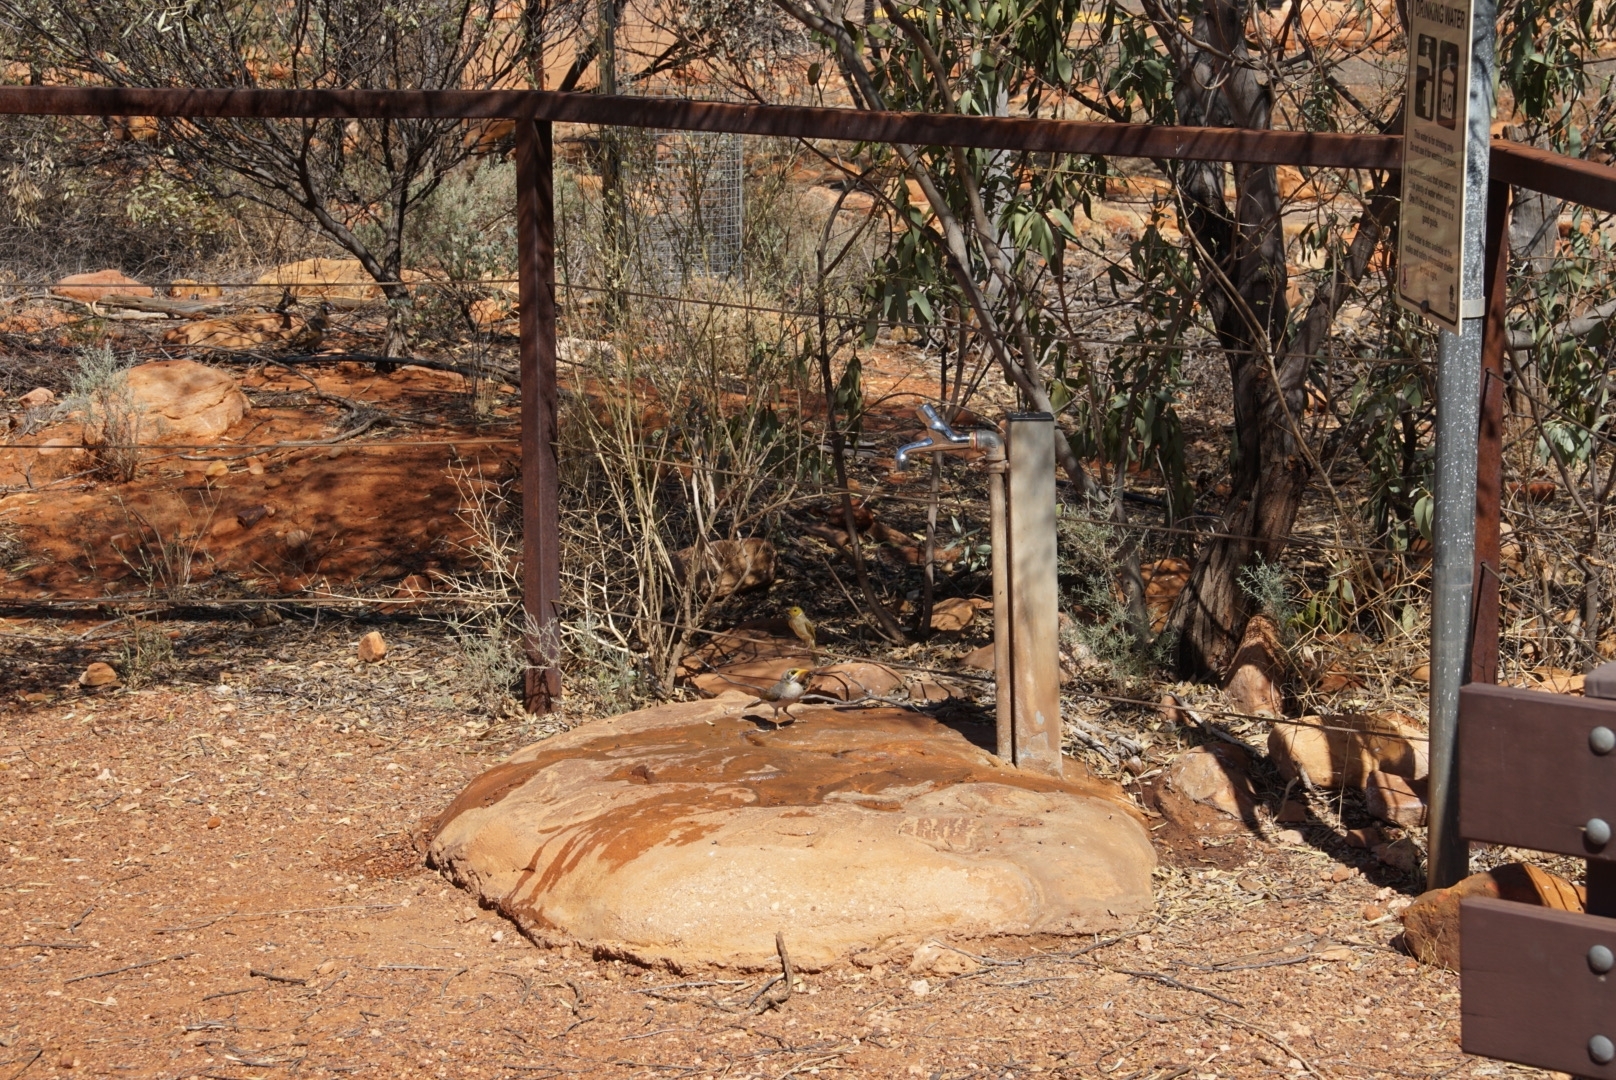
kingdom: Animalia
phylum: Chordata
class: Aves
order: Passeriformes
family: Meliphagidae
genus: Manorina
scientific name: Manorina flavigula
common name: Yellow-throated miner
